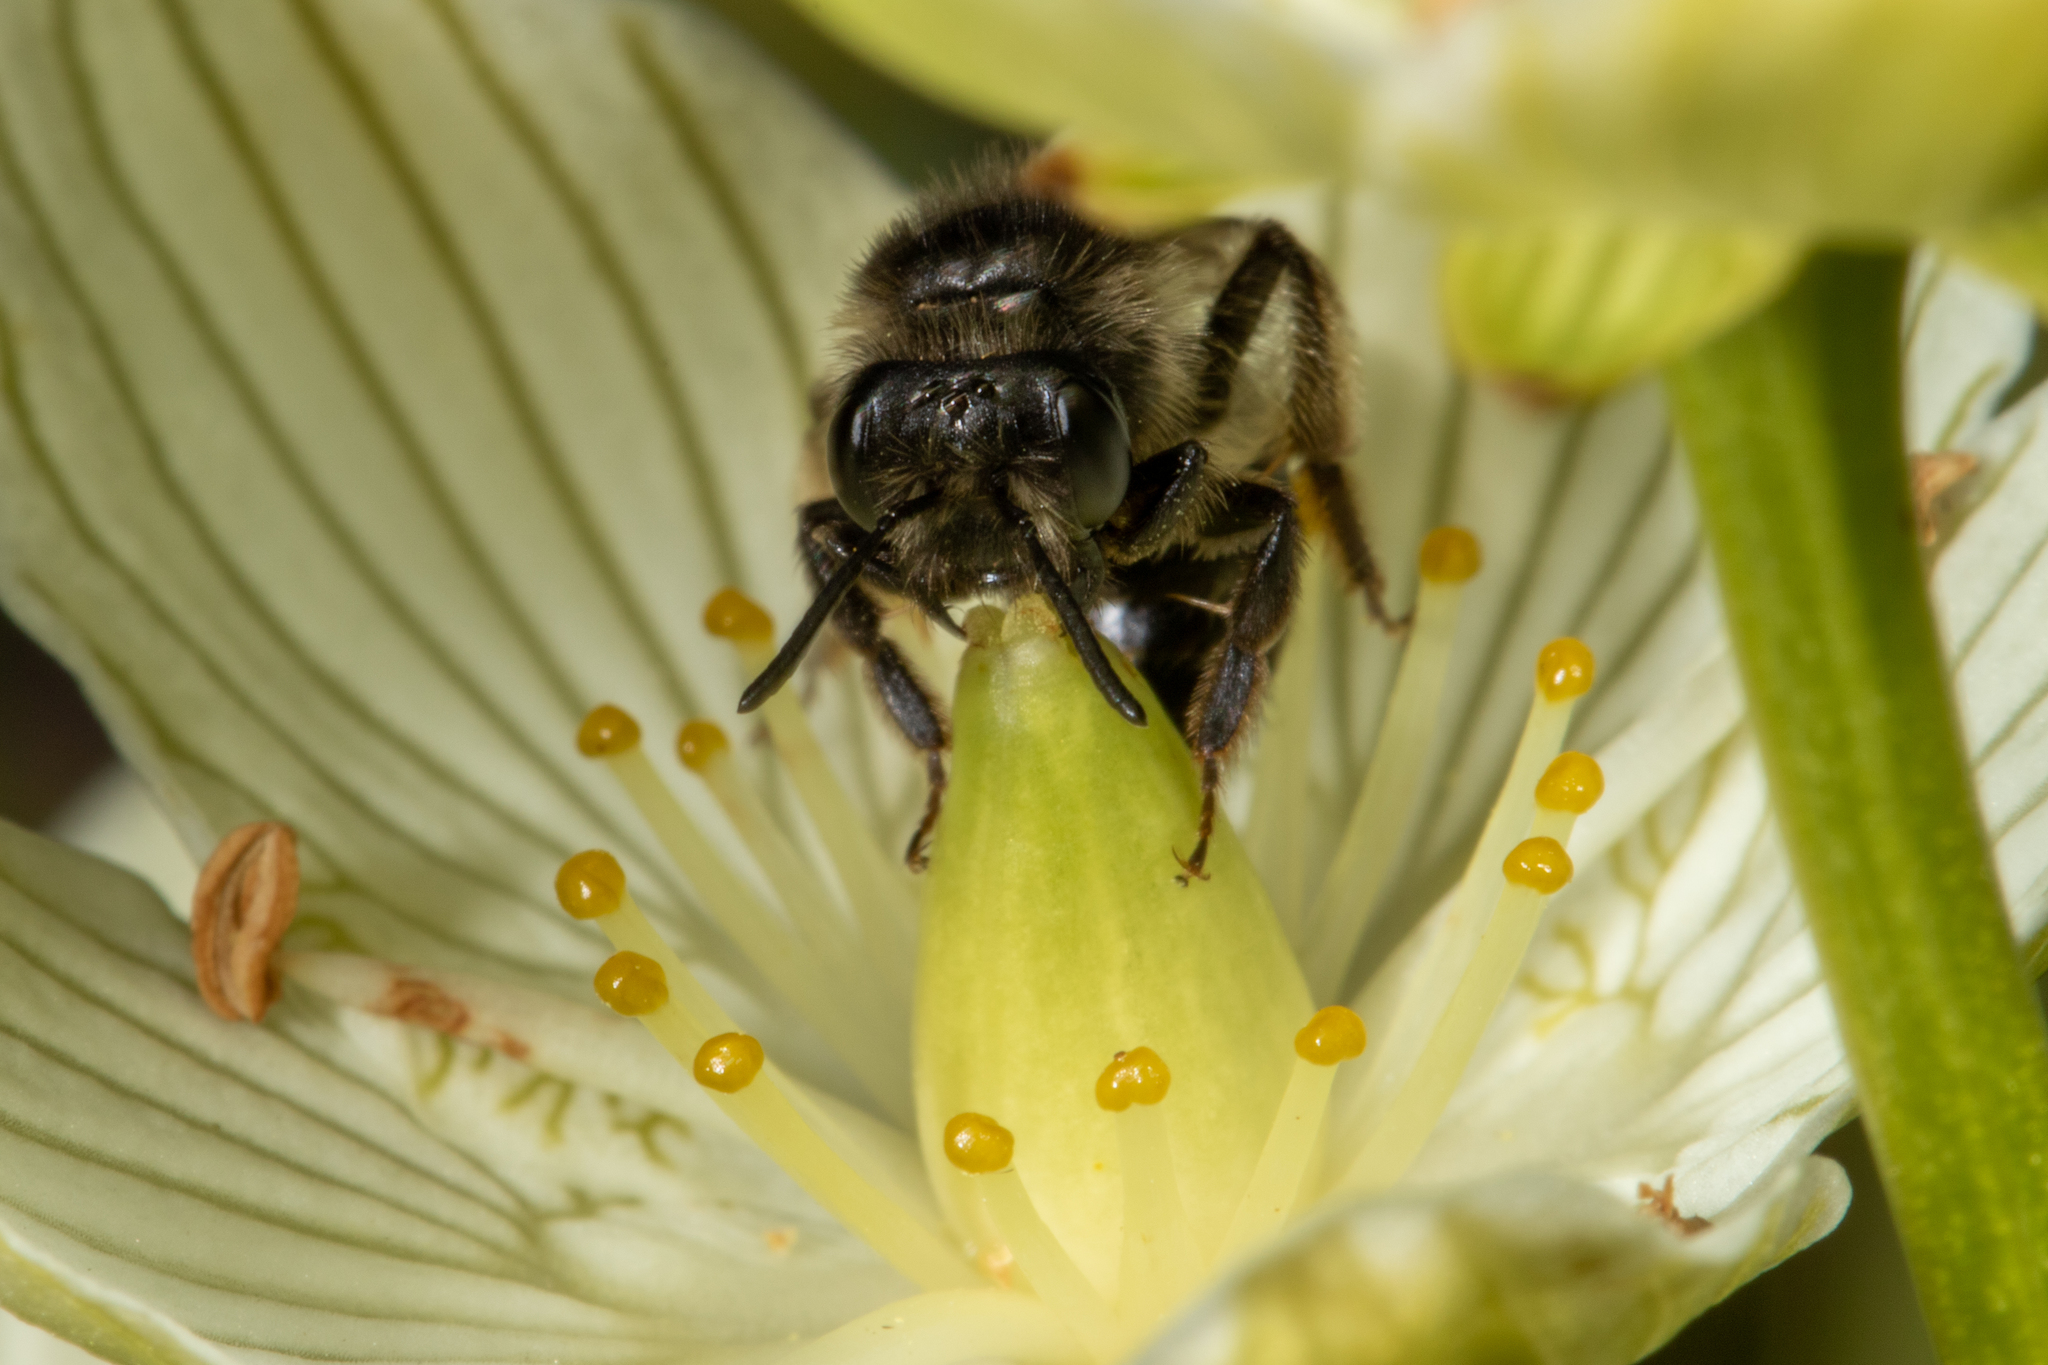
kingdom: Animalia
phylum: Arthropoda
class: Insecta
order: Hymenoptera
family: Andrenidae
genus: Andrena
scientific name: Andrena parnassiae
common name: Parnassia miner
